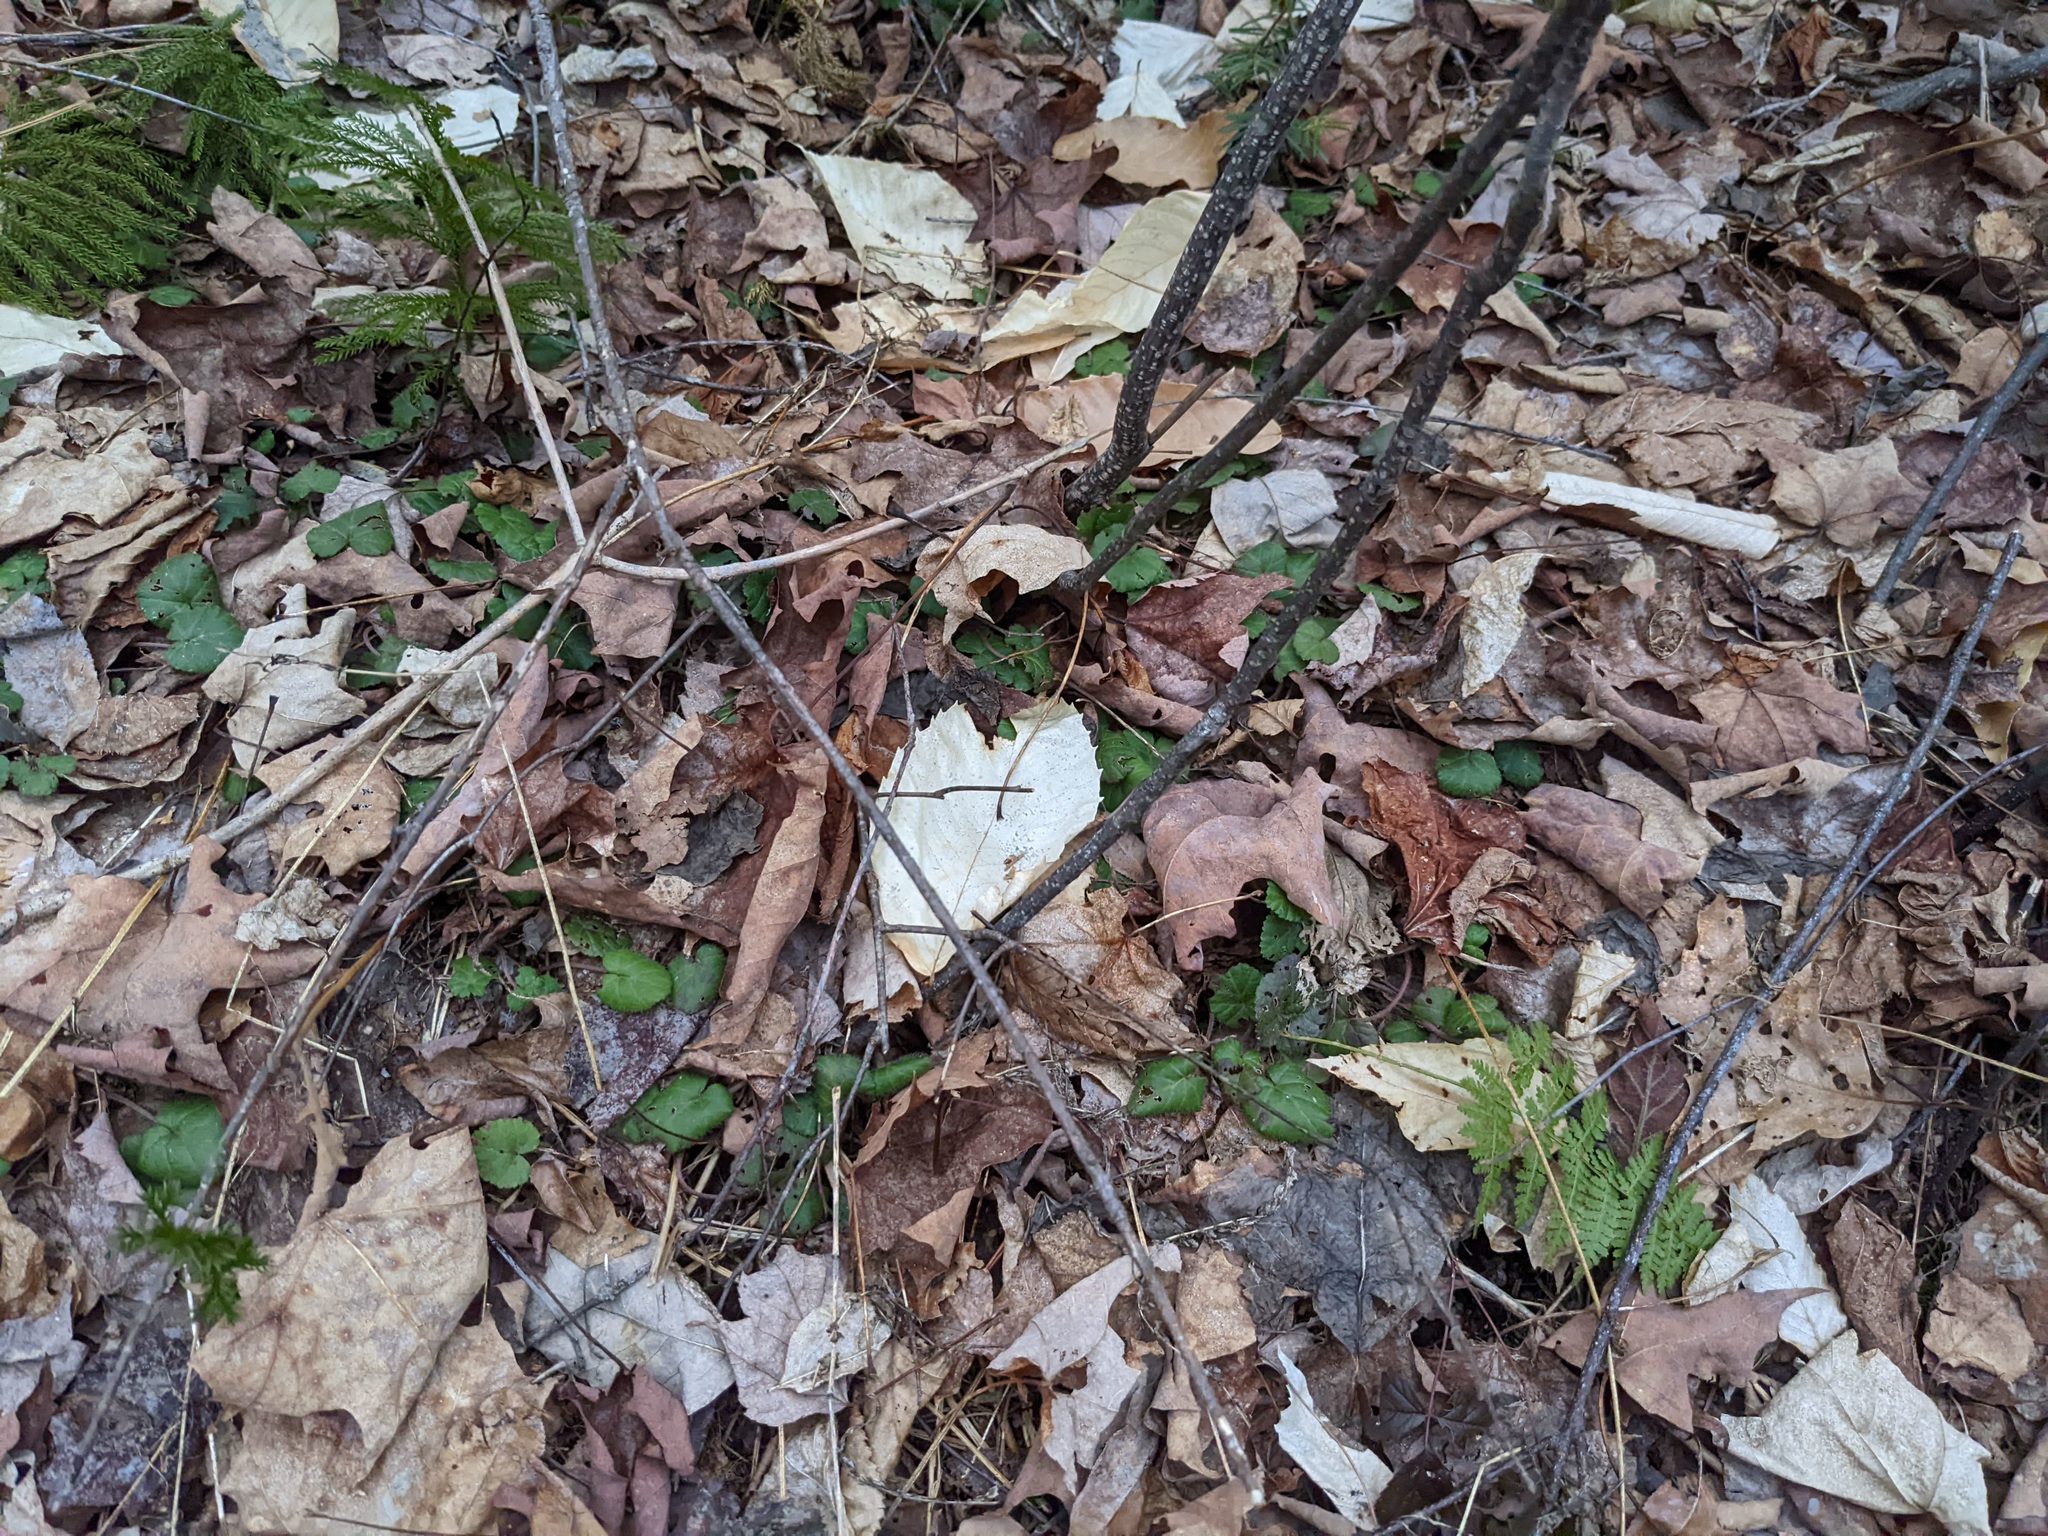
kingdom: Plantae
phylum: Tracheophyta
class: Magnoliopsida
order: Fagales
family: Fagaceae
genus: Fagus
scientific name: Fagus grandifolia
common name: American beech
